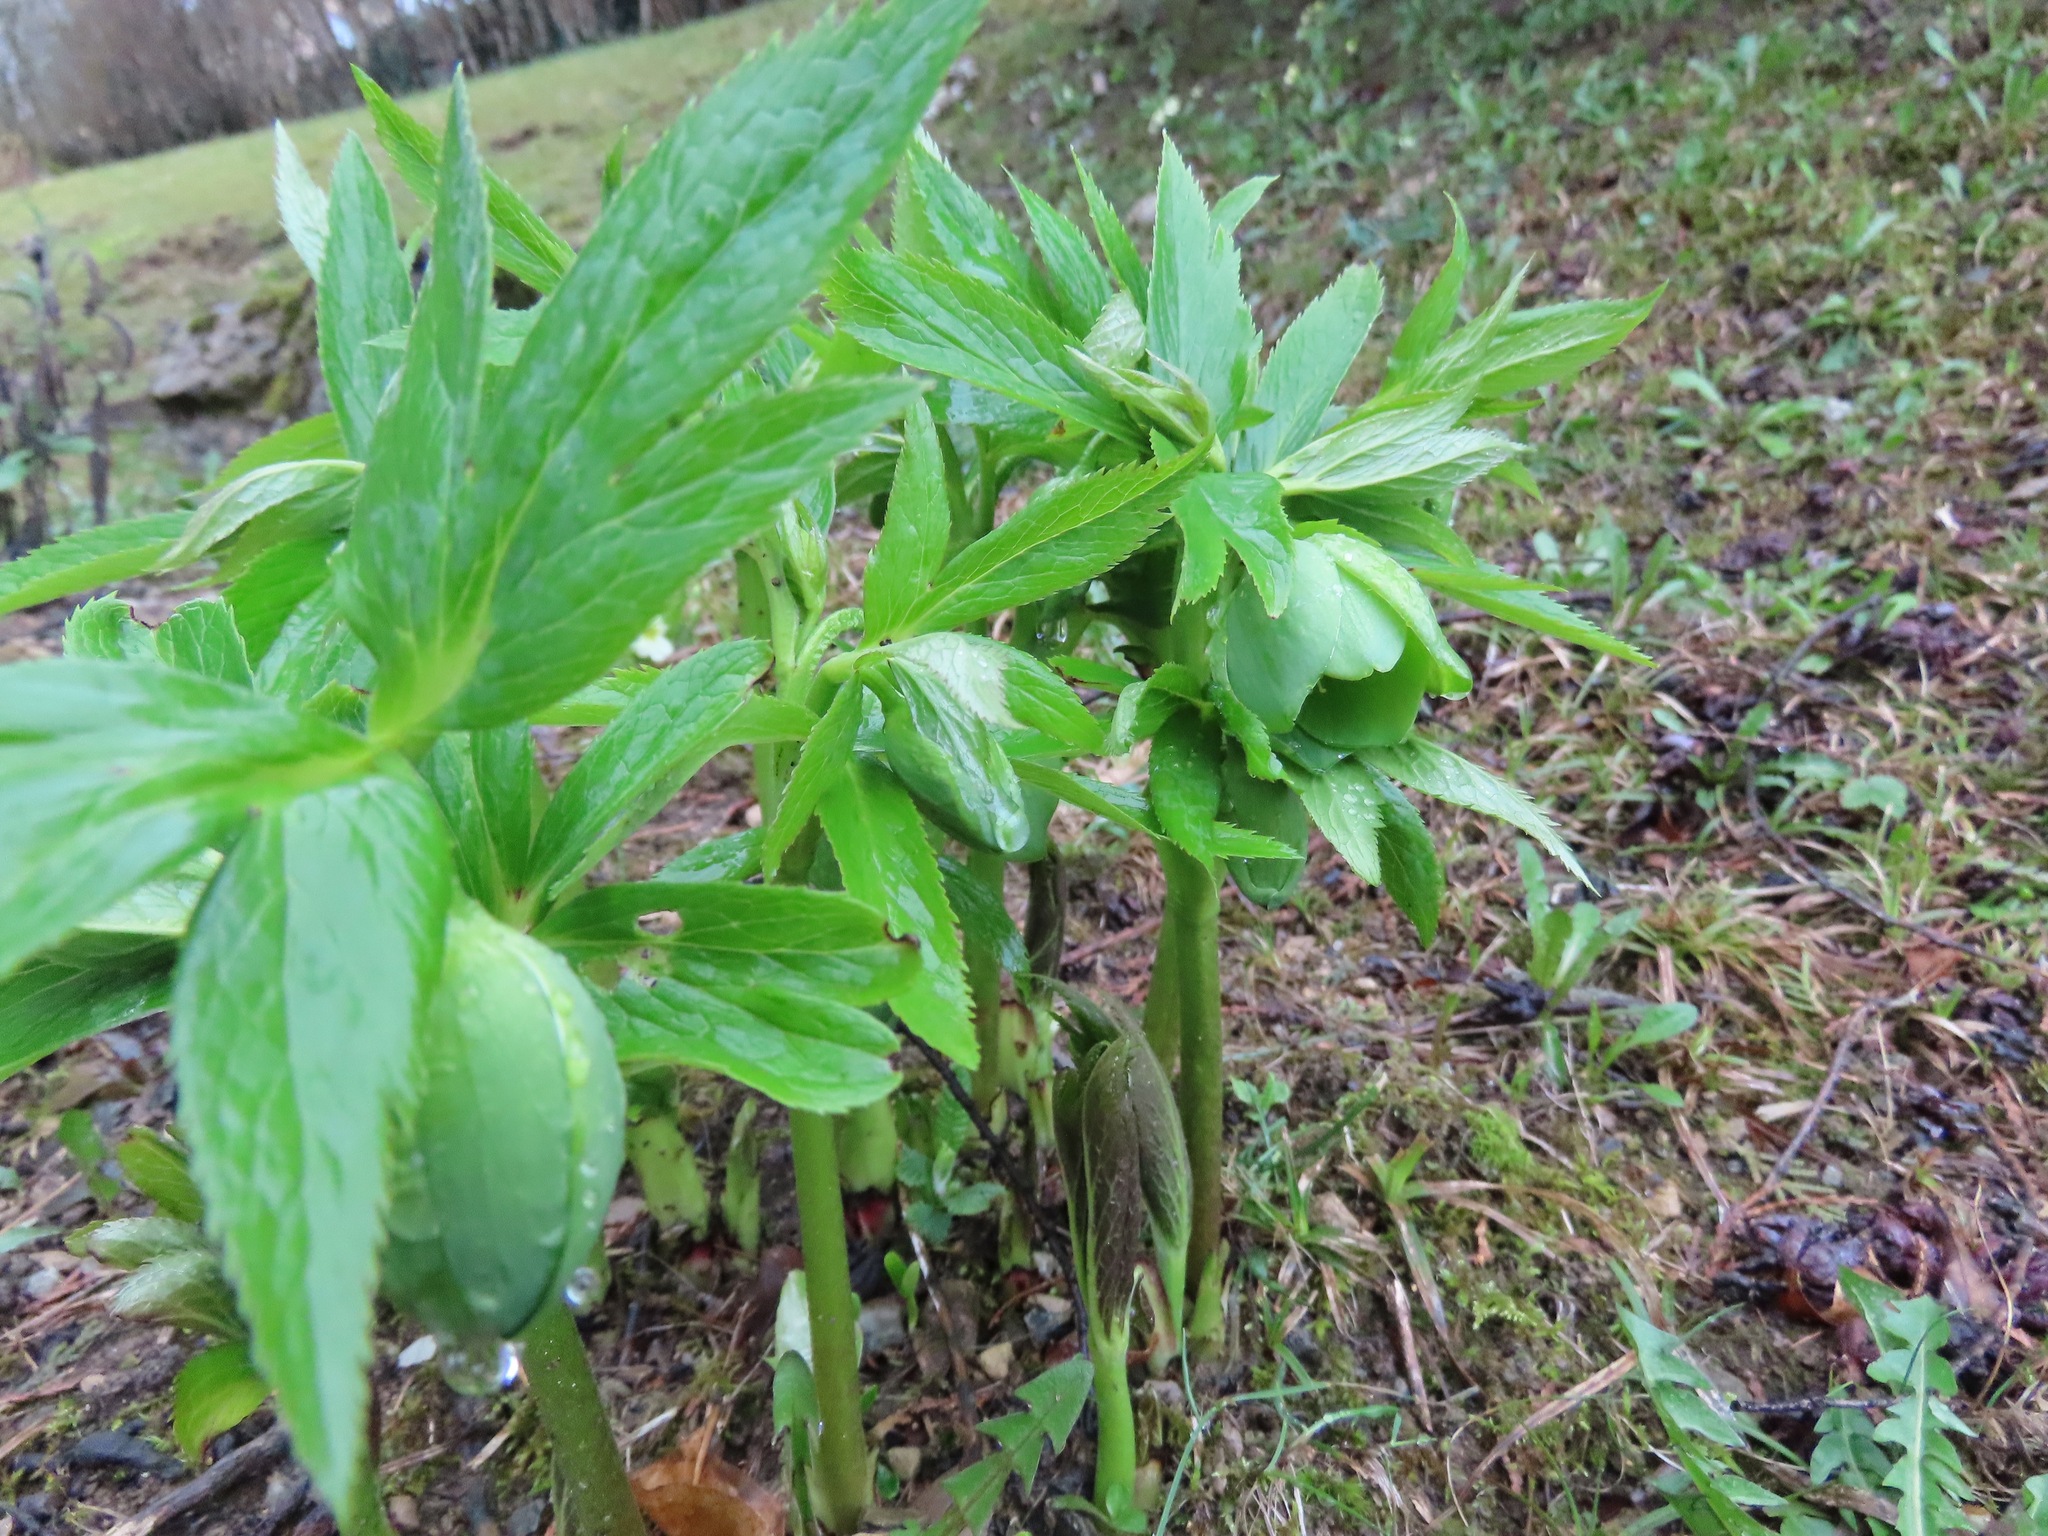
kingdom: Plantae
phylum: Tracheophyta
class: Magnoliopsida
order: Ranunculales
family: Ranunculaceae
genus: Helleborus
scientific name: Helleborus viridis
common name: Green hellebore
